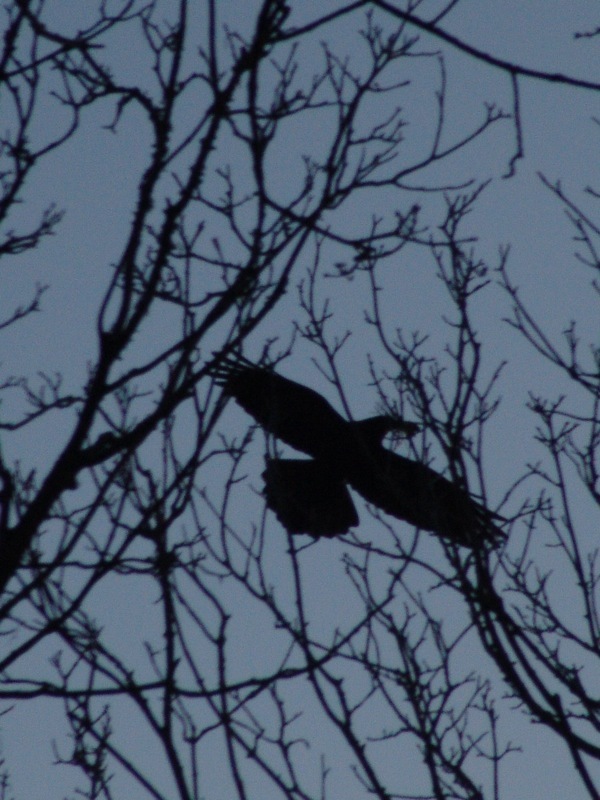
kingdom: Animalia
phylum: Chordata
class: Aves
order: Passeriformes
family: Corvidae
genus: Corvus
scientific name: Corvus frugilegus
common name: Rook
